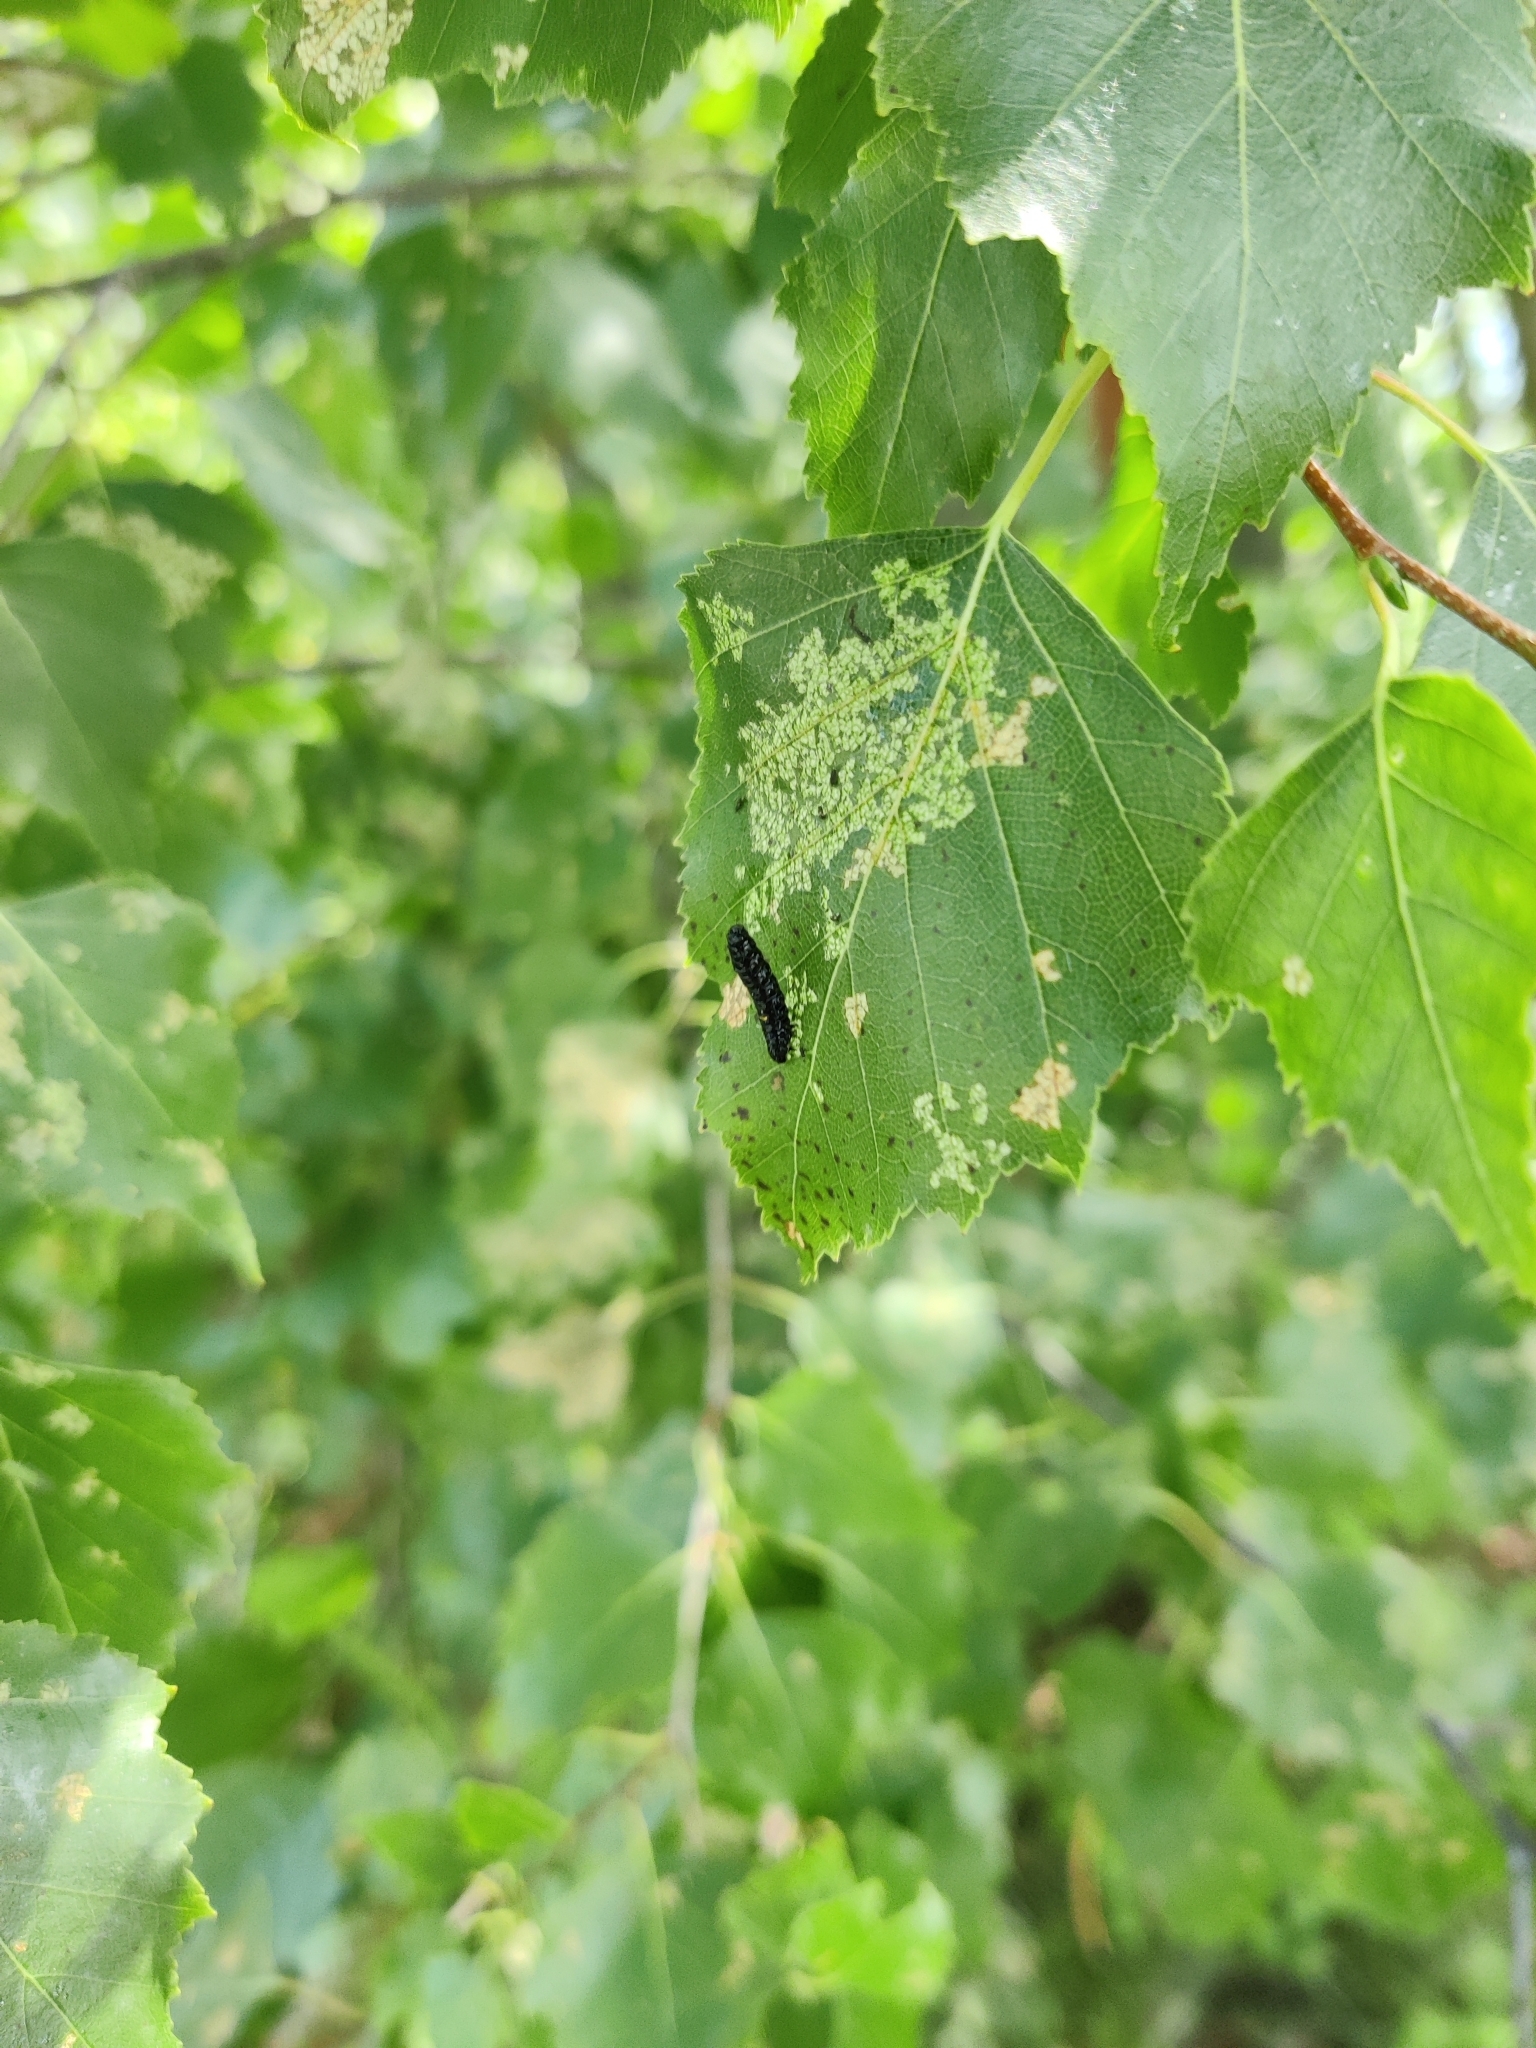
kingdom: Animalia
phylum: Arthropoda
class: Insecta
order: Coleoptera
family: Chrysomelidae
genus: Agelastica
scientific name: Agelastica alni
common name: Alder leaf beetle
